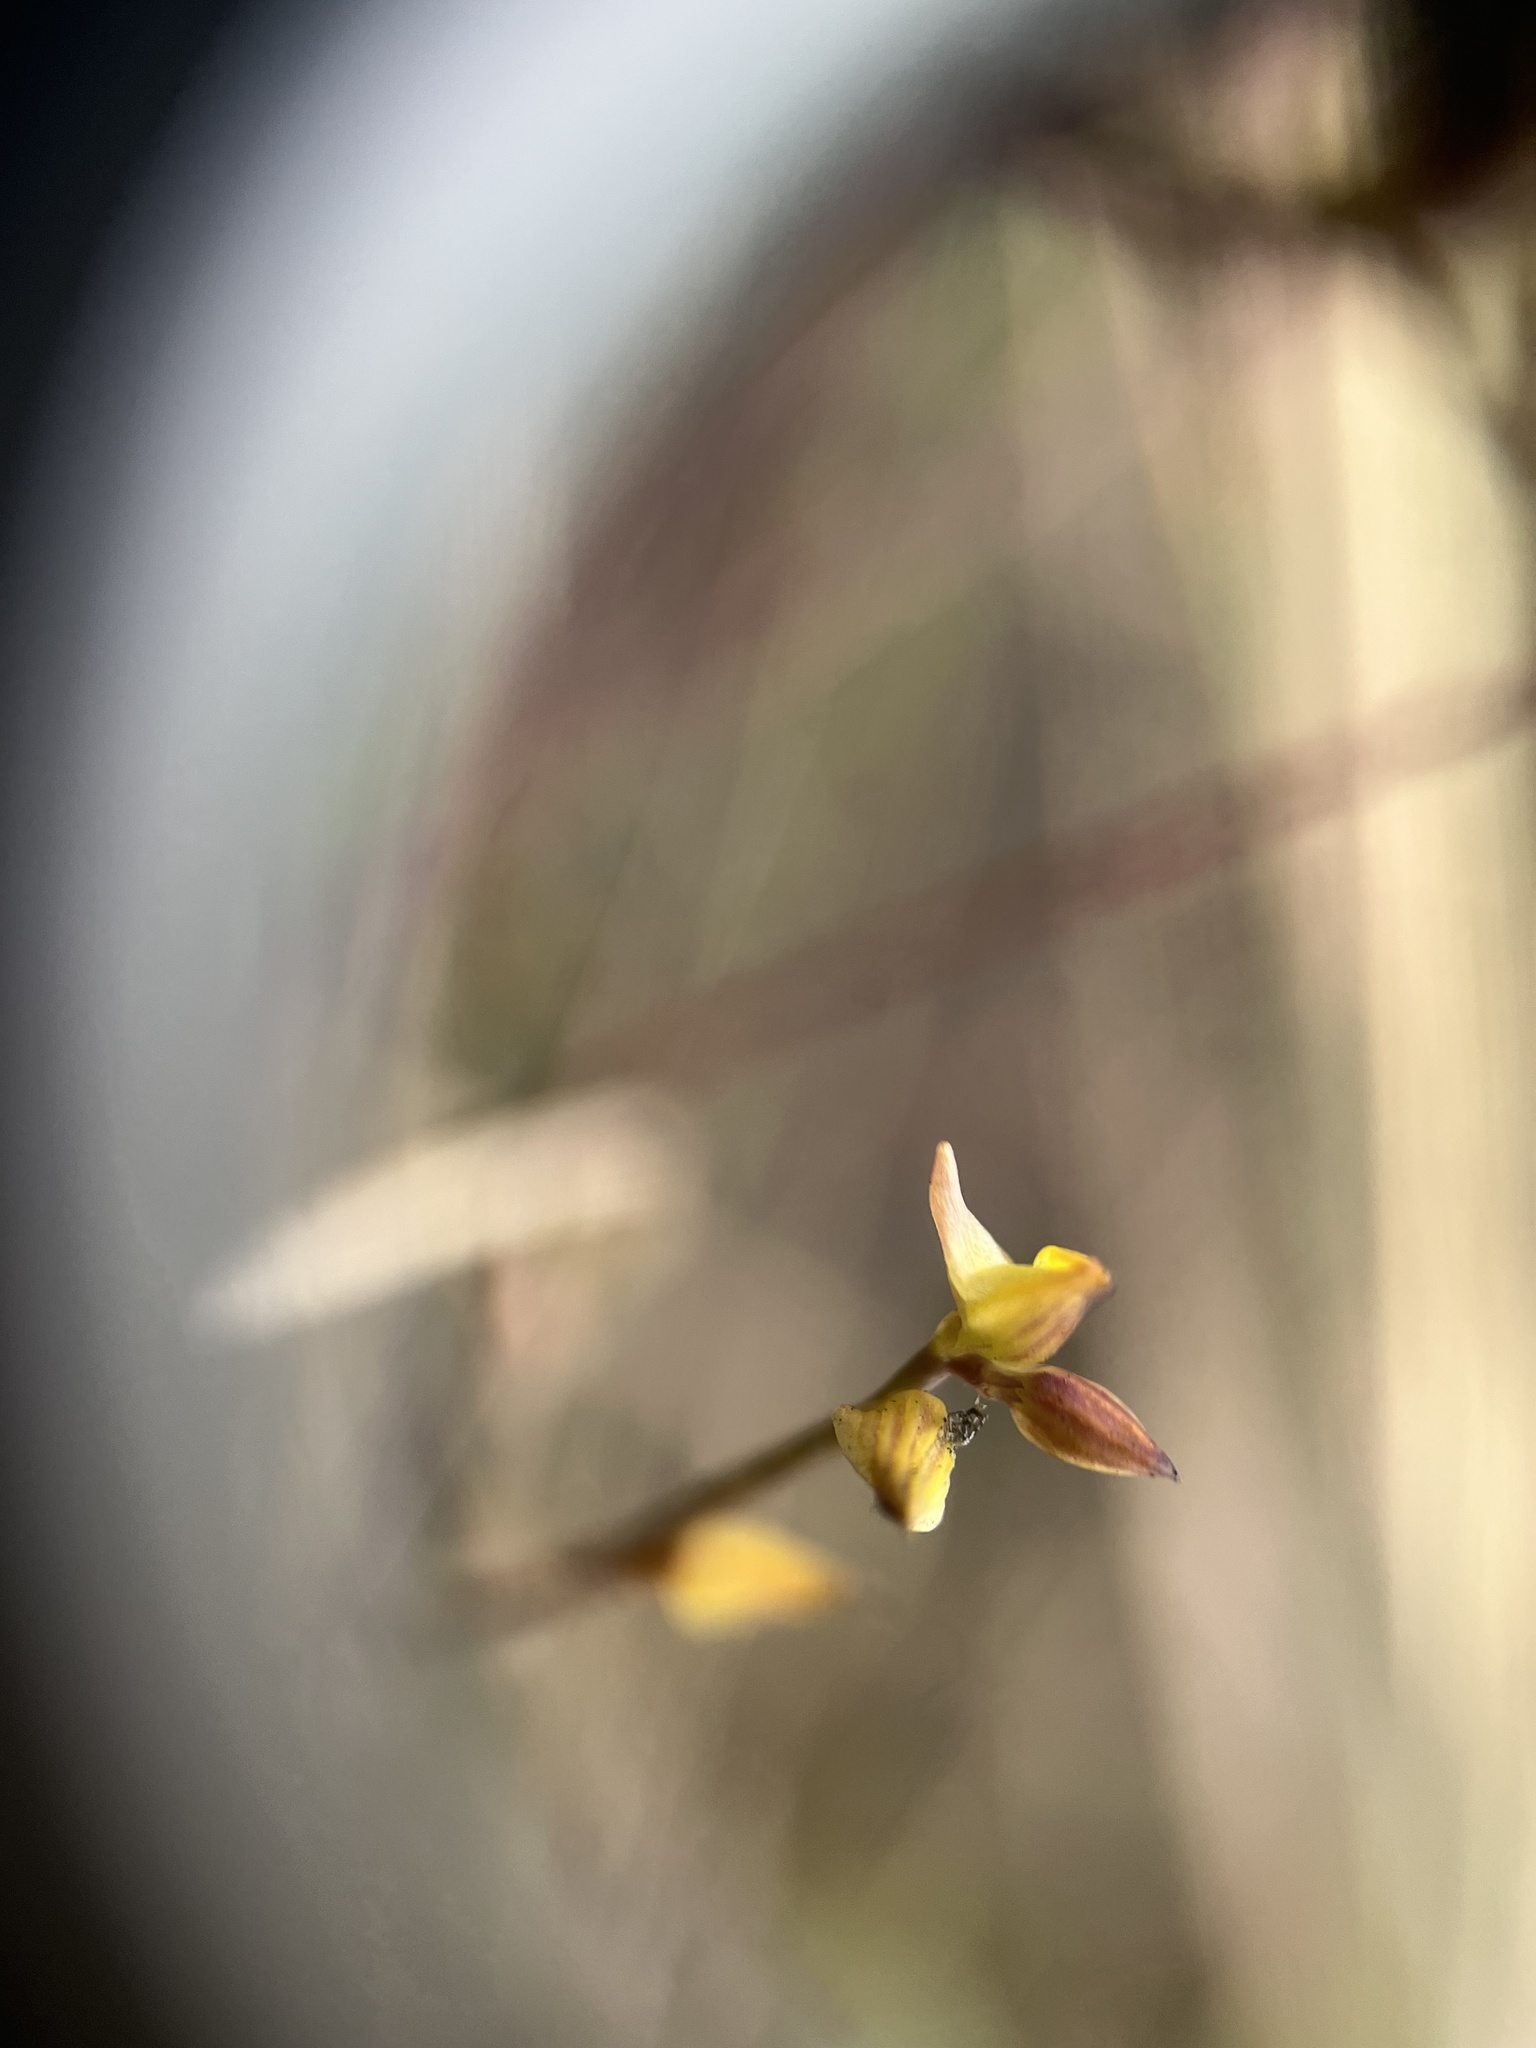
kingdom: Plantae
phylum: Tracheophyta
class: Magnoliopsida
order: Lamiales
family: Lentibulariaceae
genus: Utricularia
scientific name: Utricularia juncea
